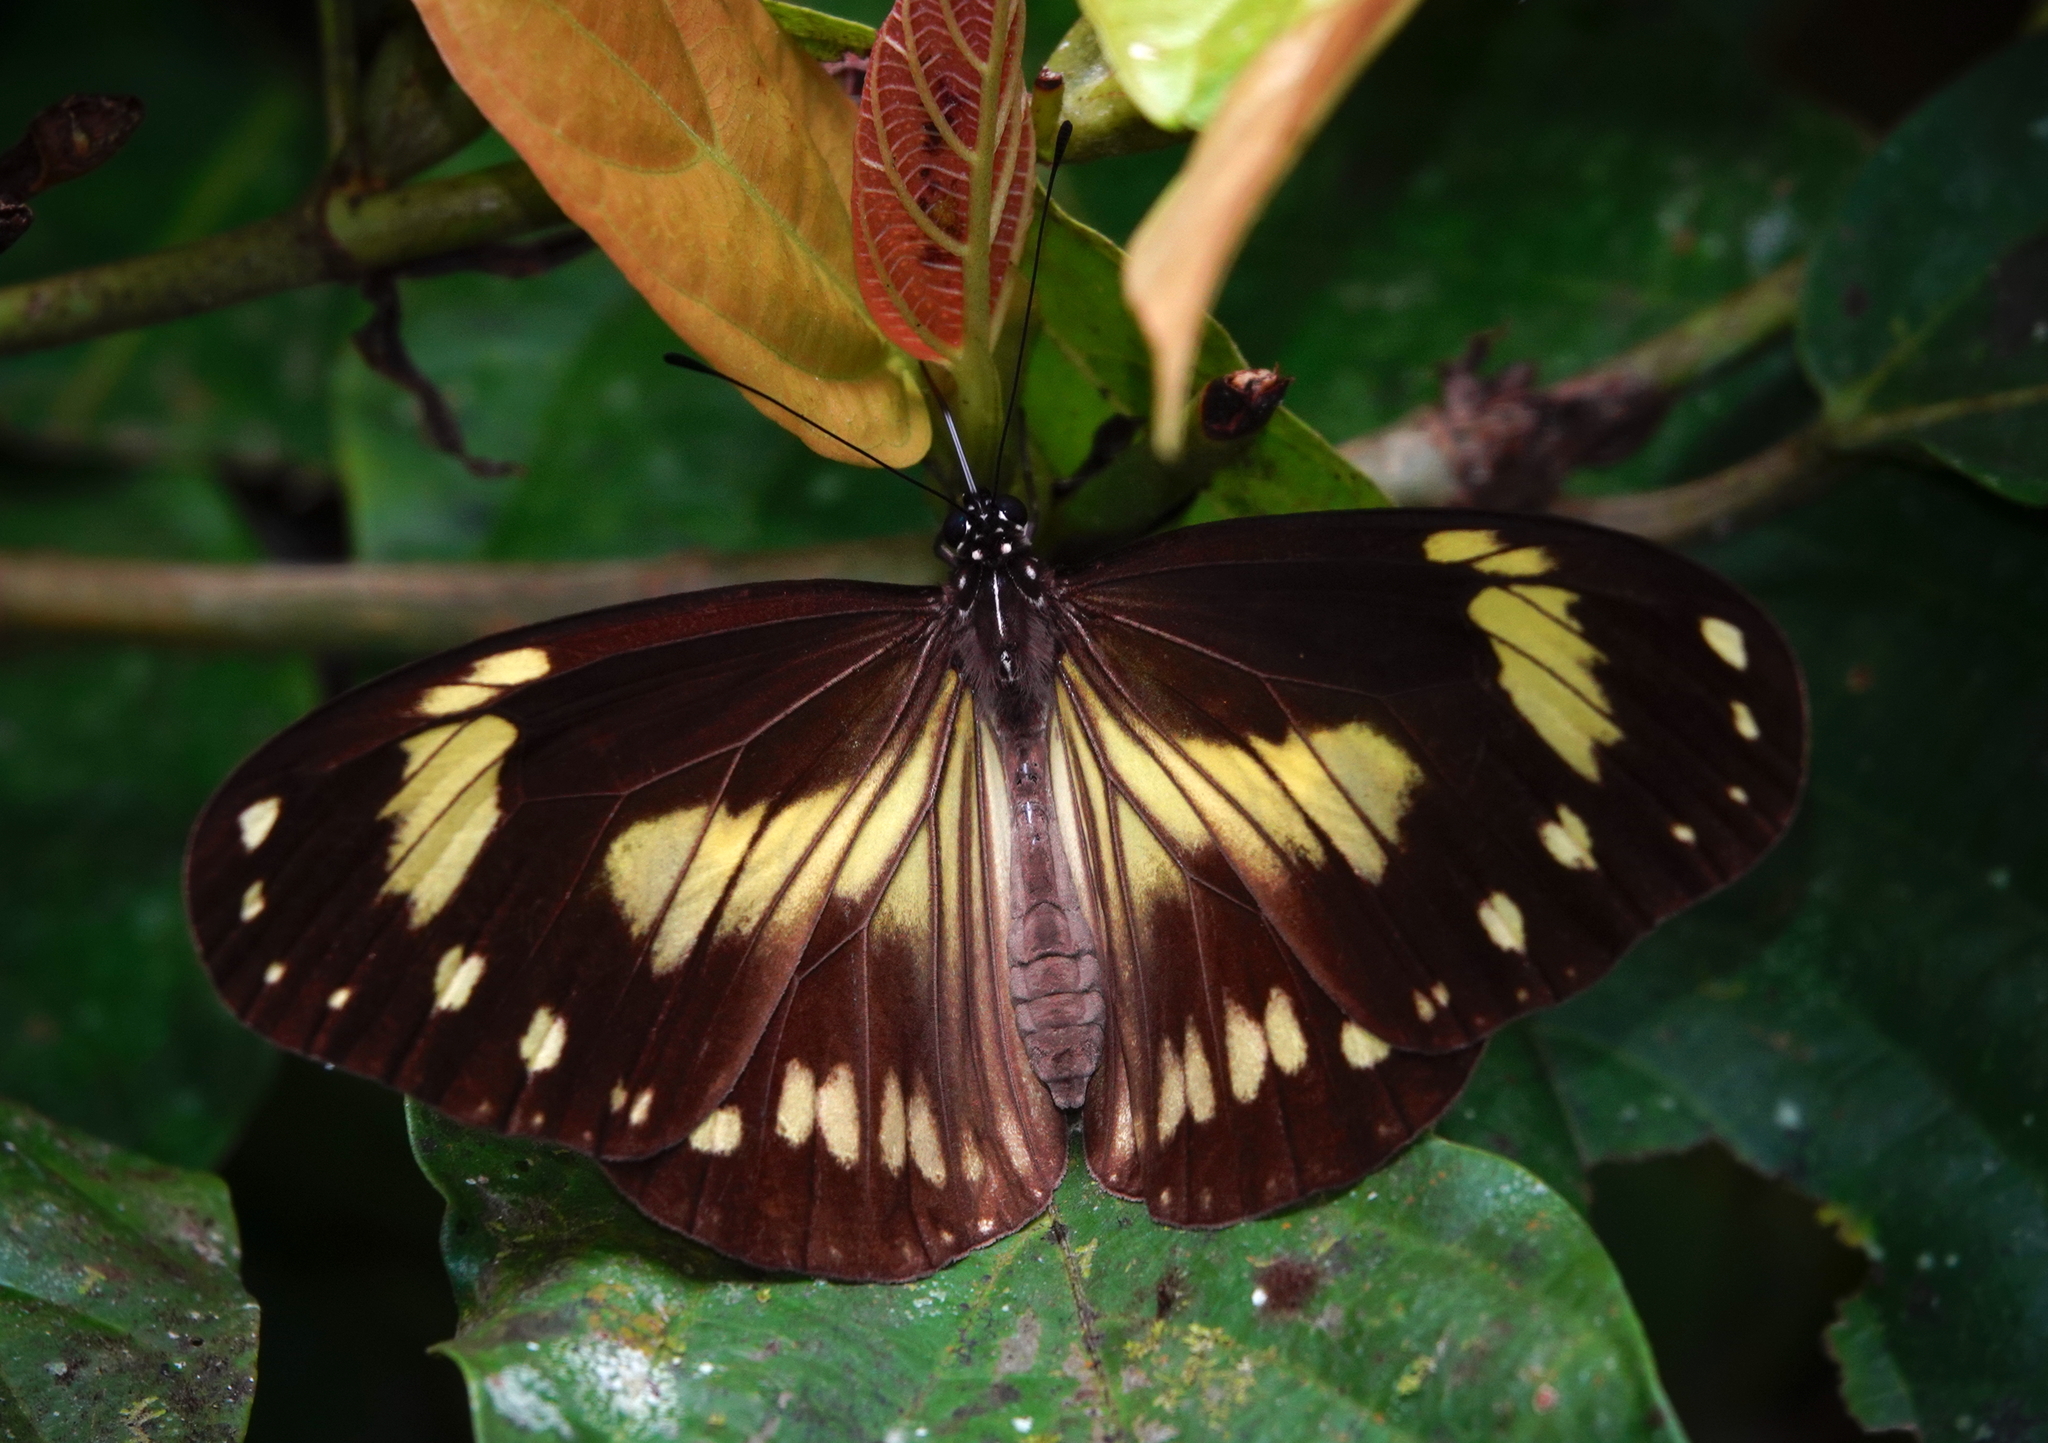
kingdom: Animalia
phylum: Arthropoda
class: Insecta
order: Lepidoptera
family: Nymphalidae
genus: Ideopsis
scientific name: Ideopsis klassika
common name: Seram small tree-nymph
